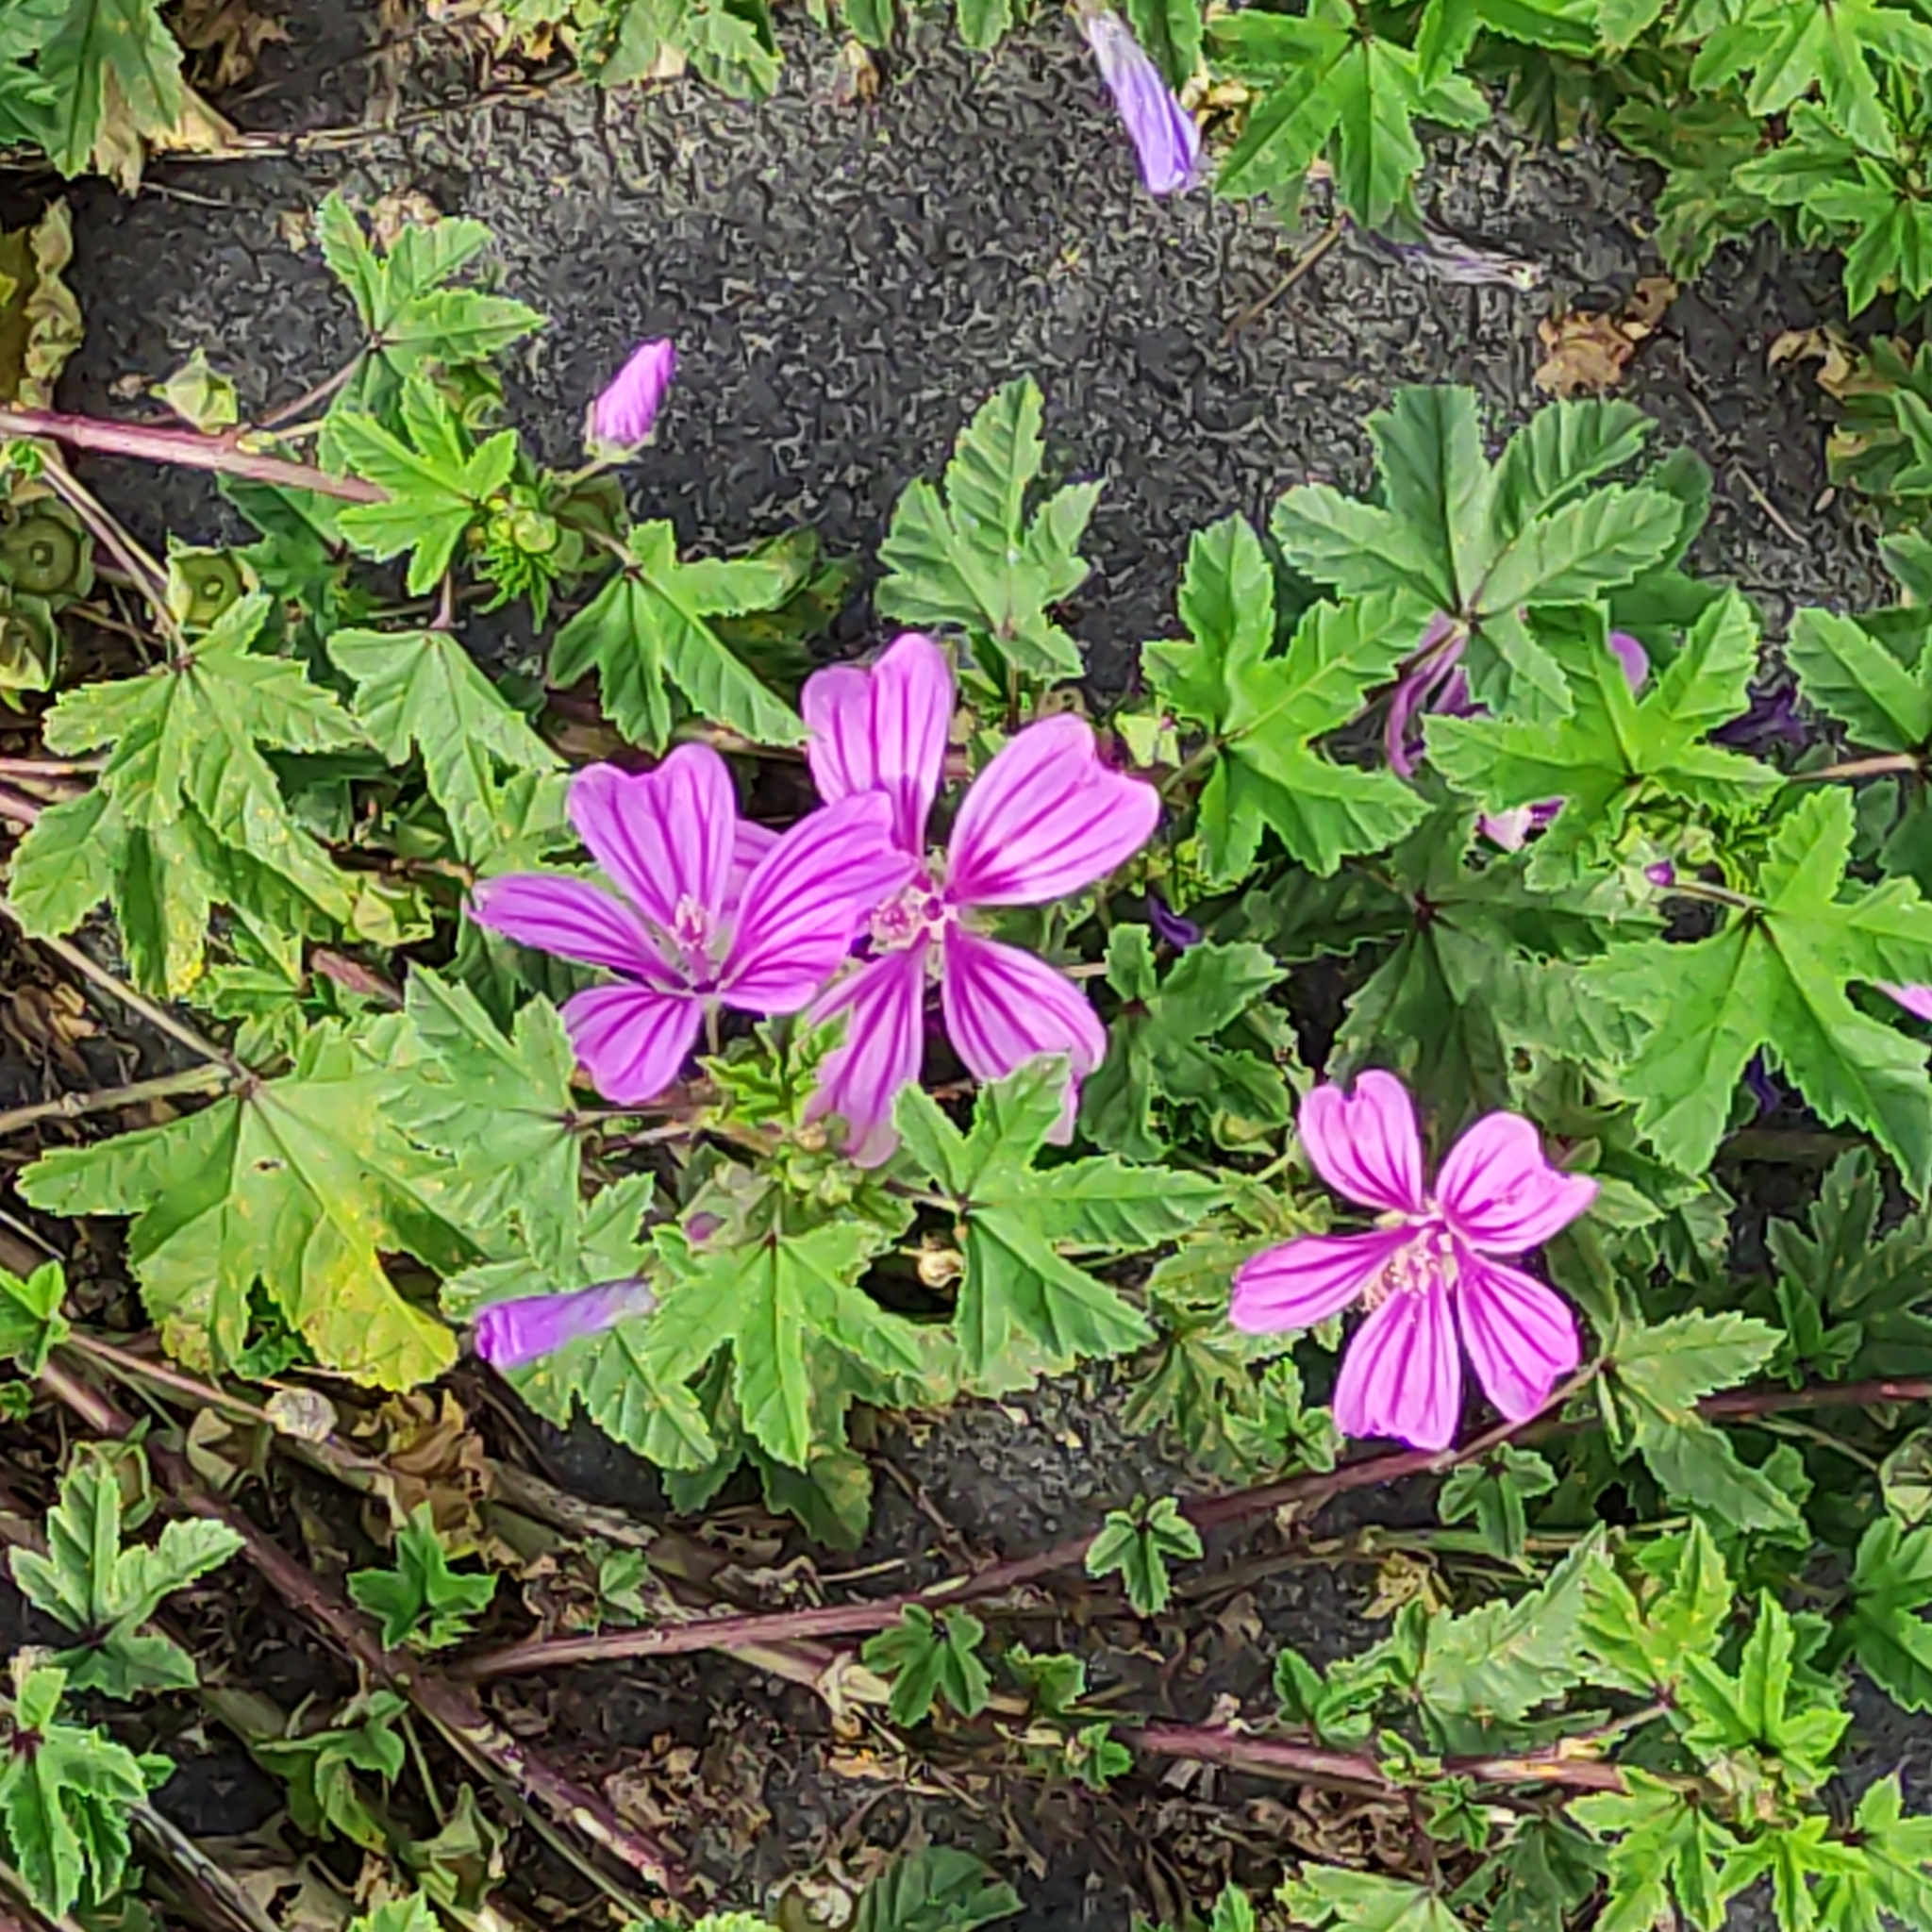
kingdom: Plantae
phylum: Tracheophyta
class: Magnoliopsida
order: Malvales
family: Malvaceae
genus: Malva
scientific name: Malva sylvestris
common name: Common mallow
